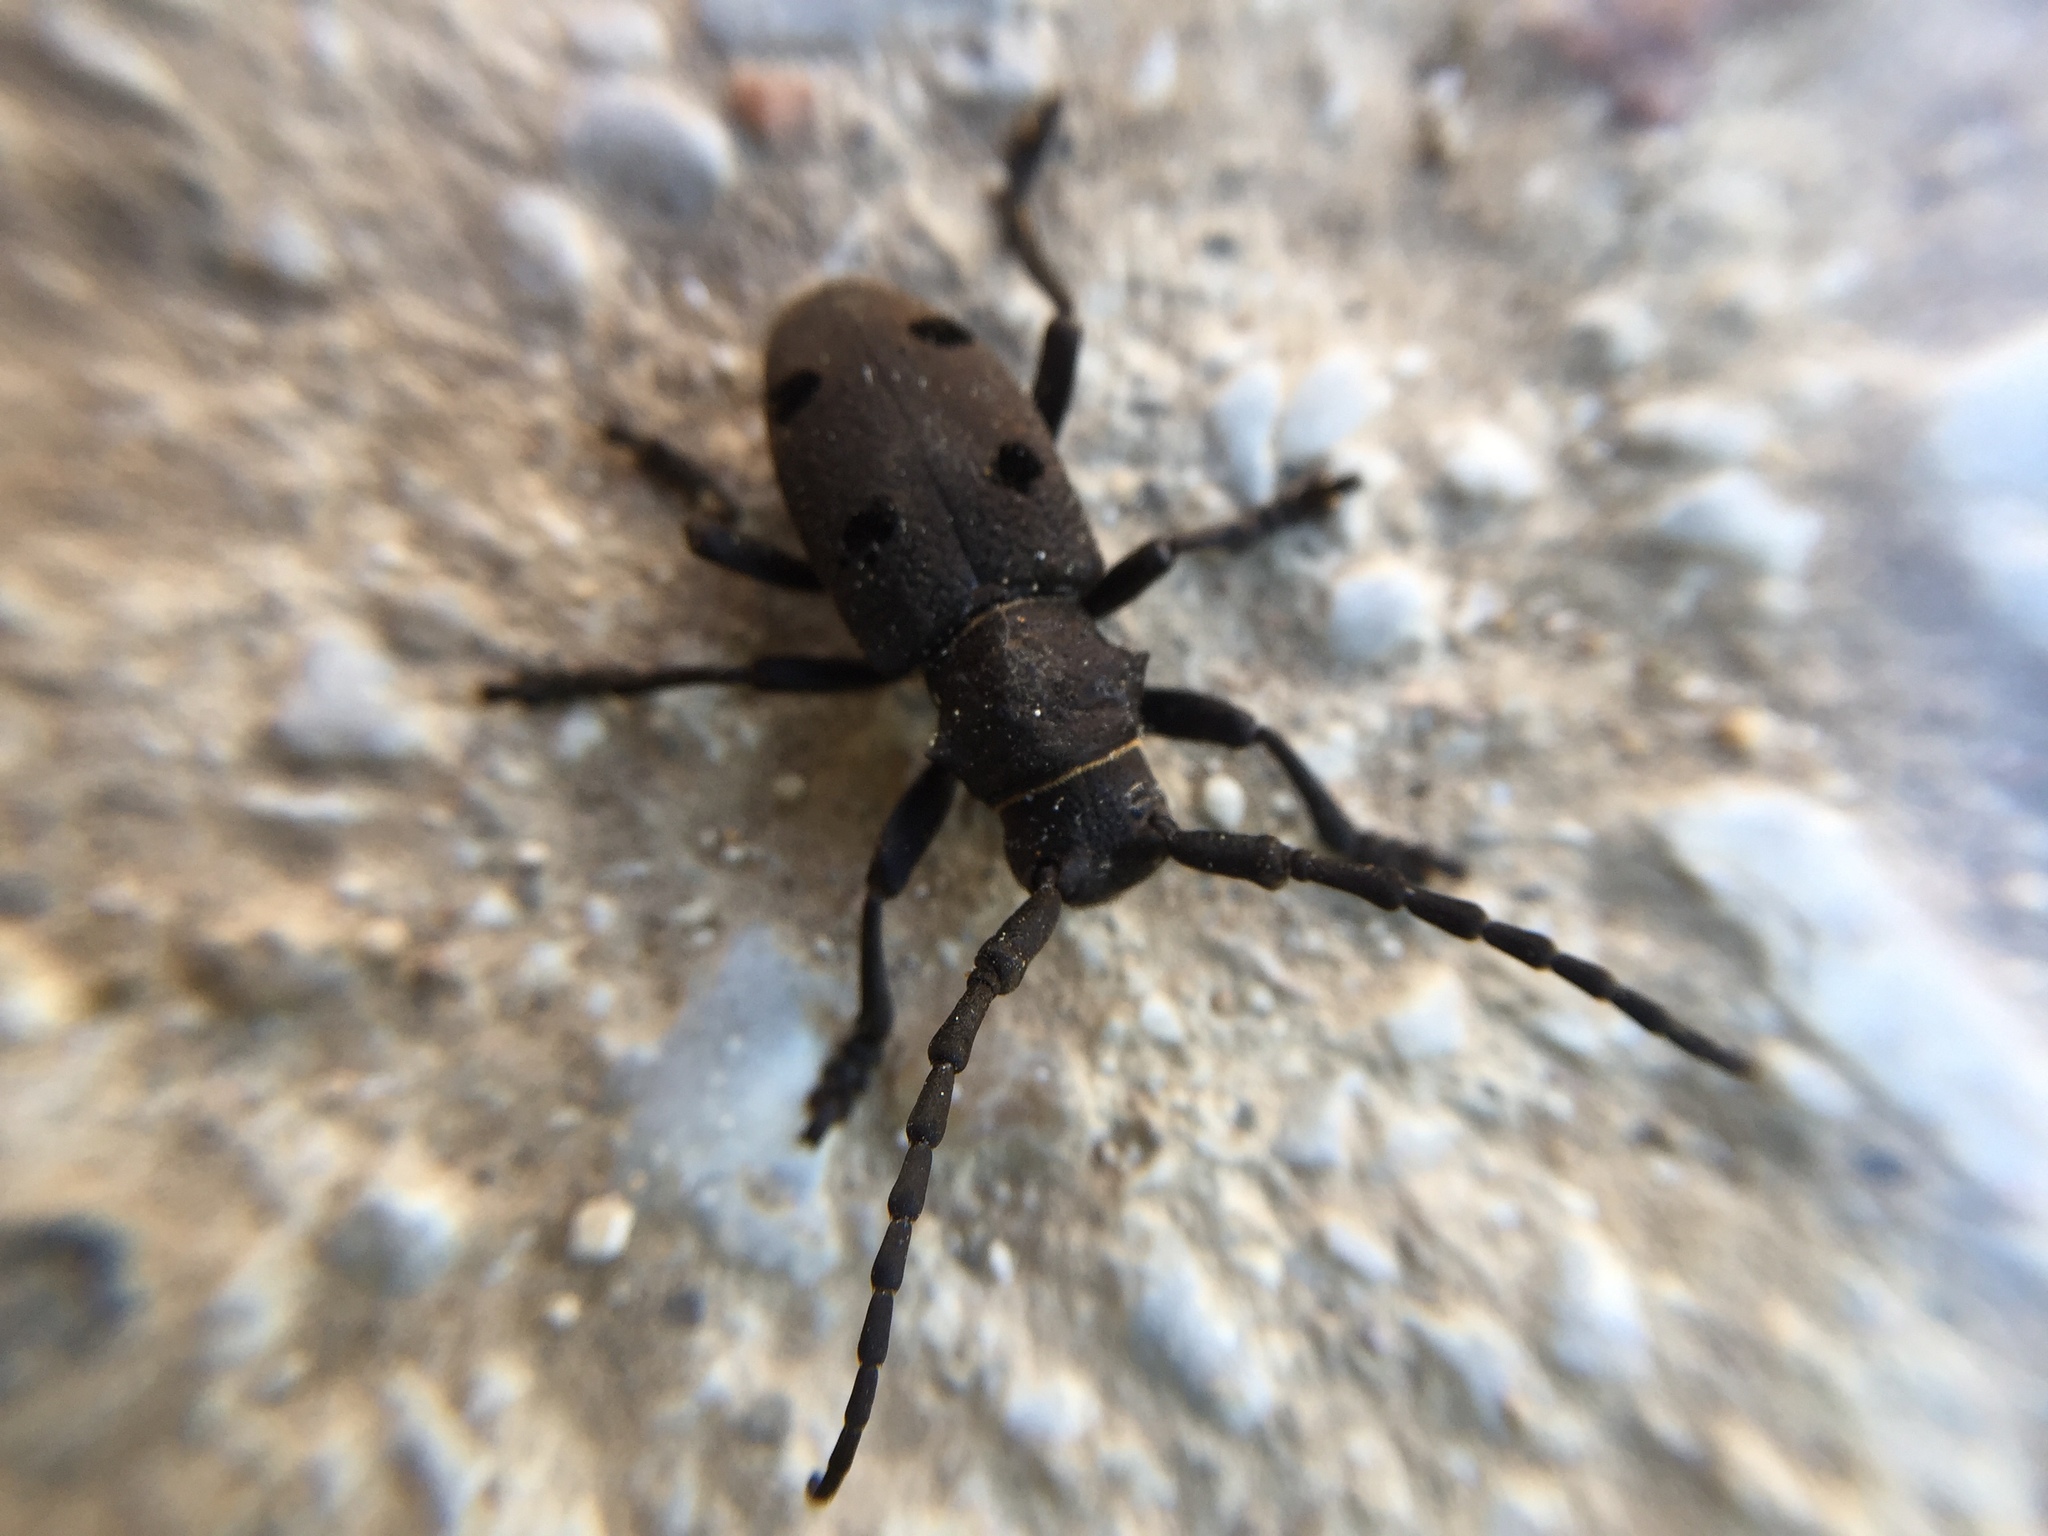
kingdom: Animalia
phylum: Arthropoda
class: Insecta
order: Coleoptera
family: Cerambycidae
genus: Herophila
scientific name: Herophila tristis
